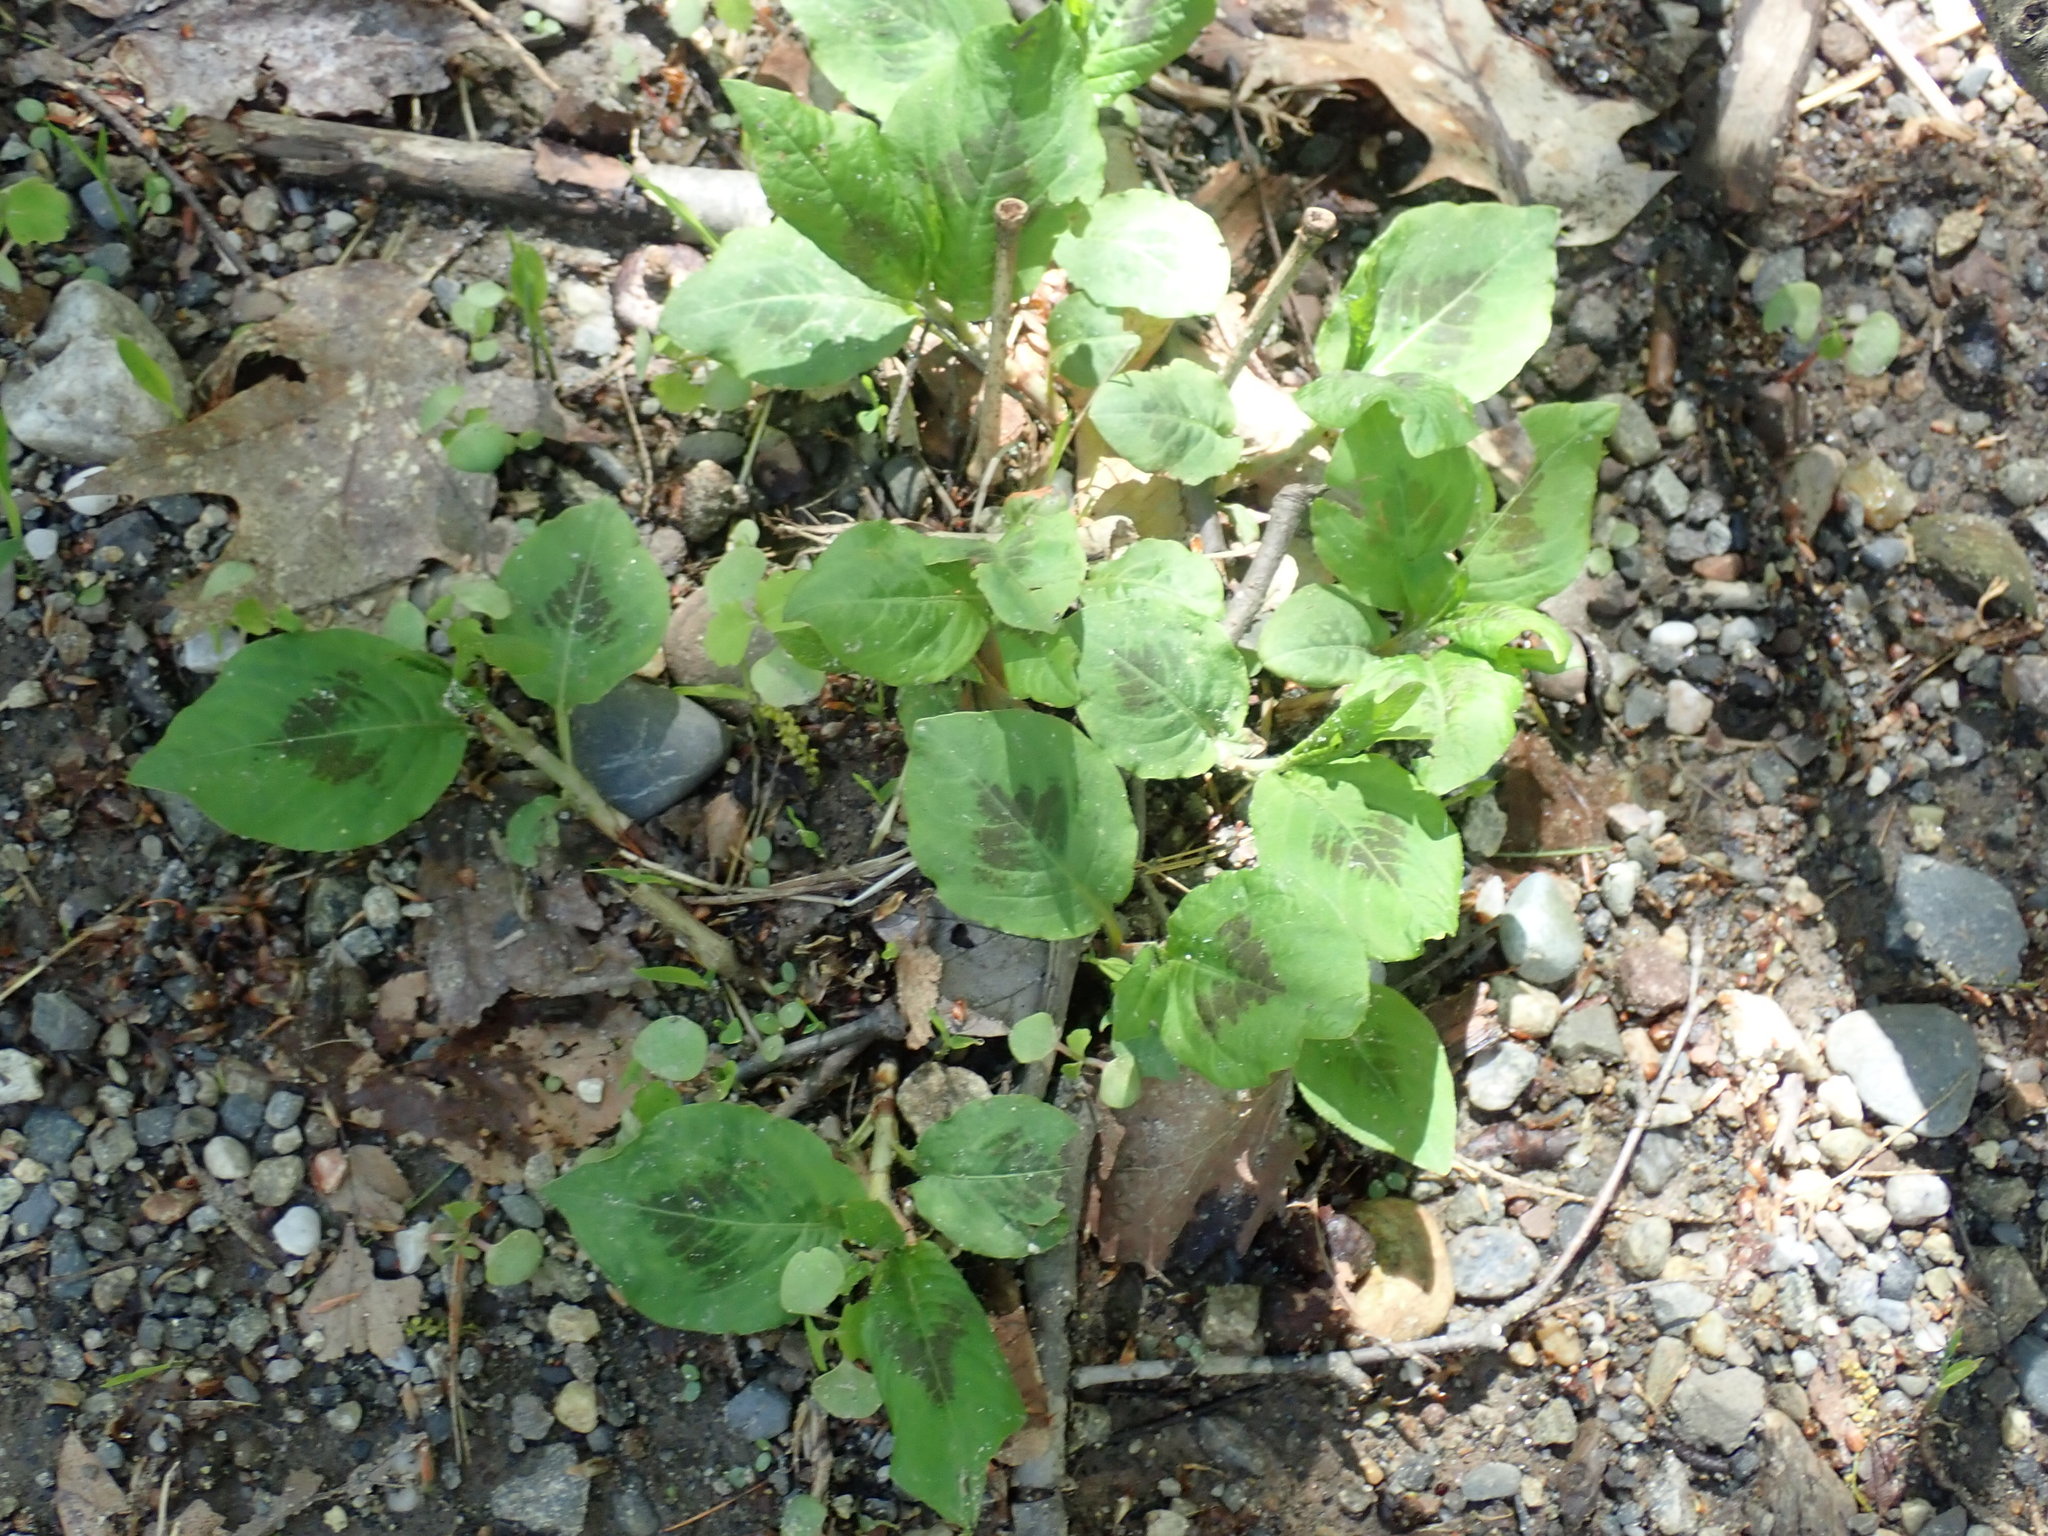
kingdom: Plantae
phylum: Tracheophyta
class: Magnoliopsida
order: Caryophyllales
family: Polygonaceae
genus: Persicaria
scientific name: Persicaria virginiana
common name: Jumpseed
